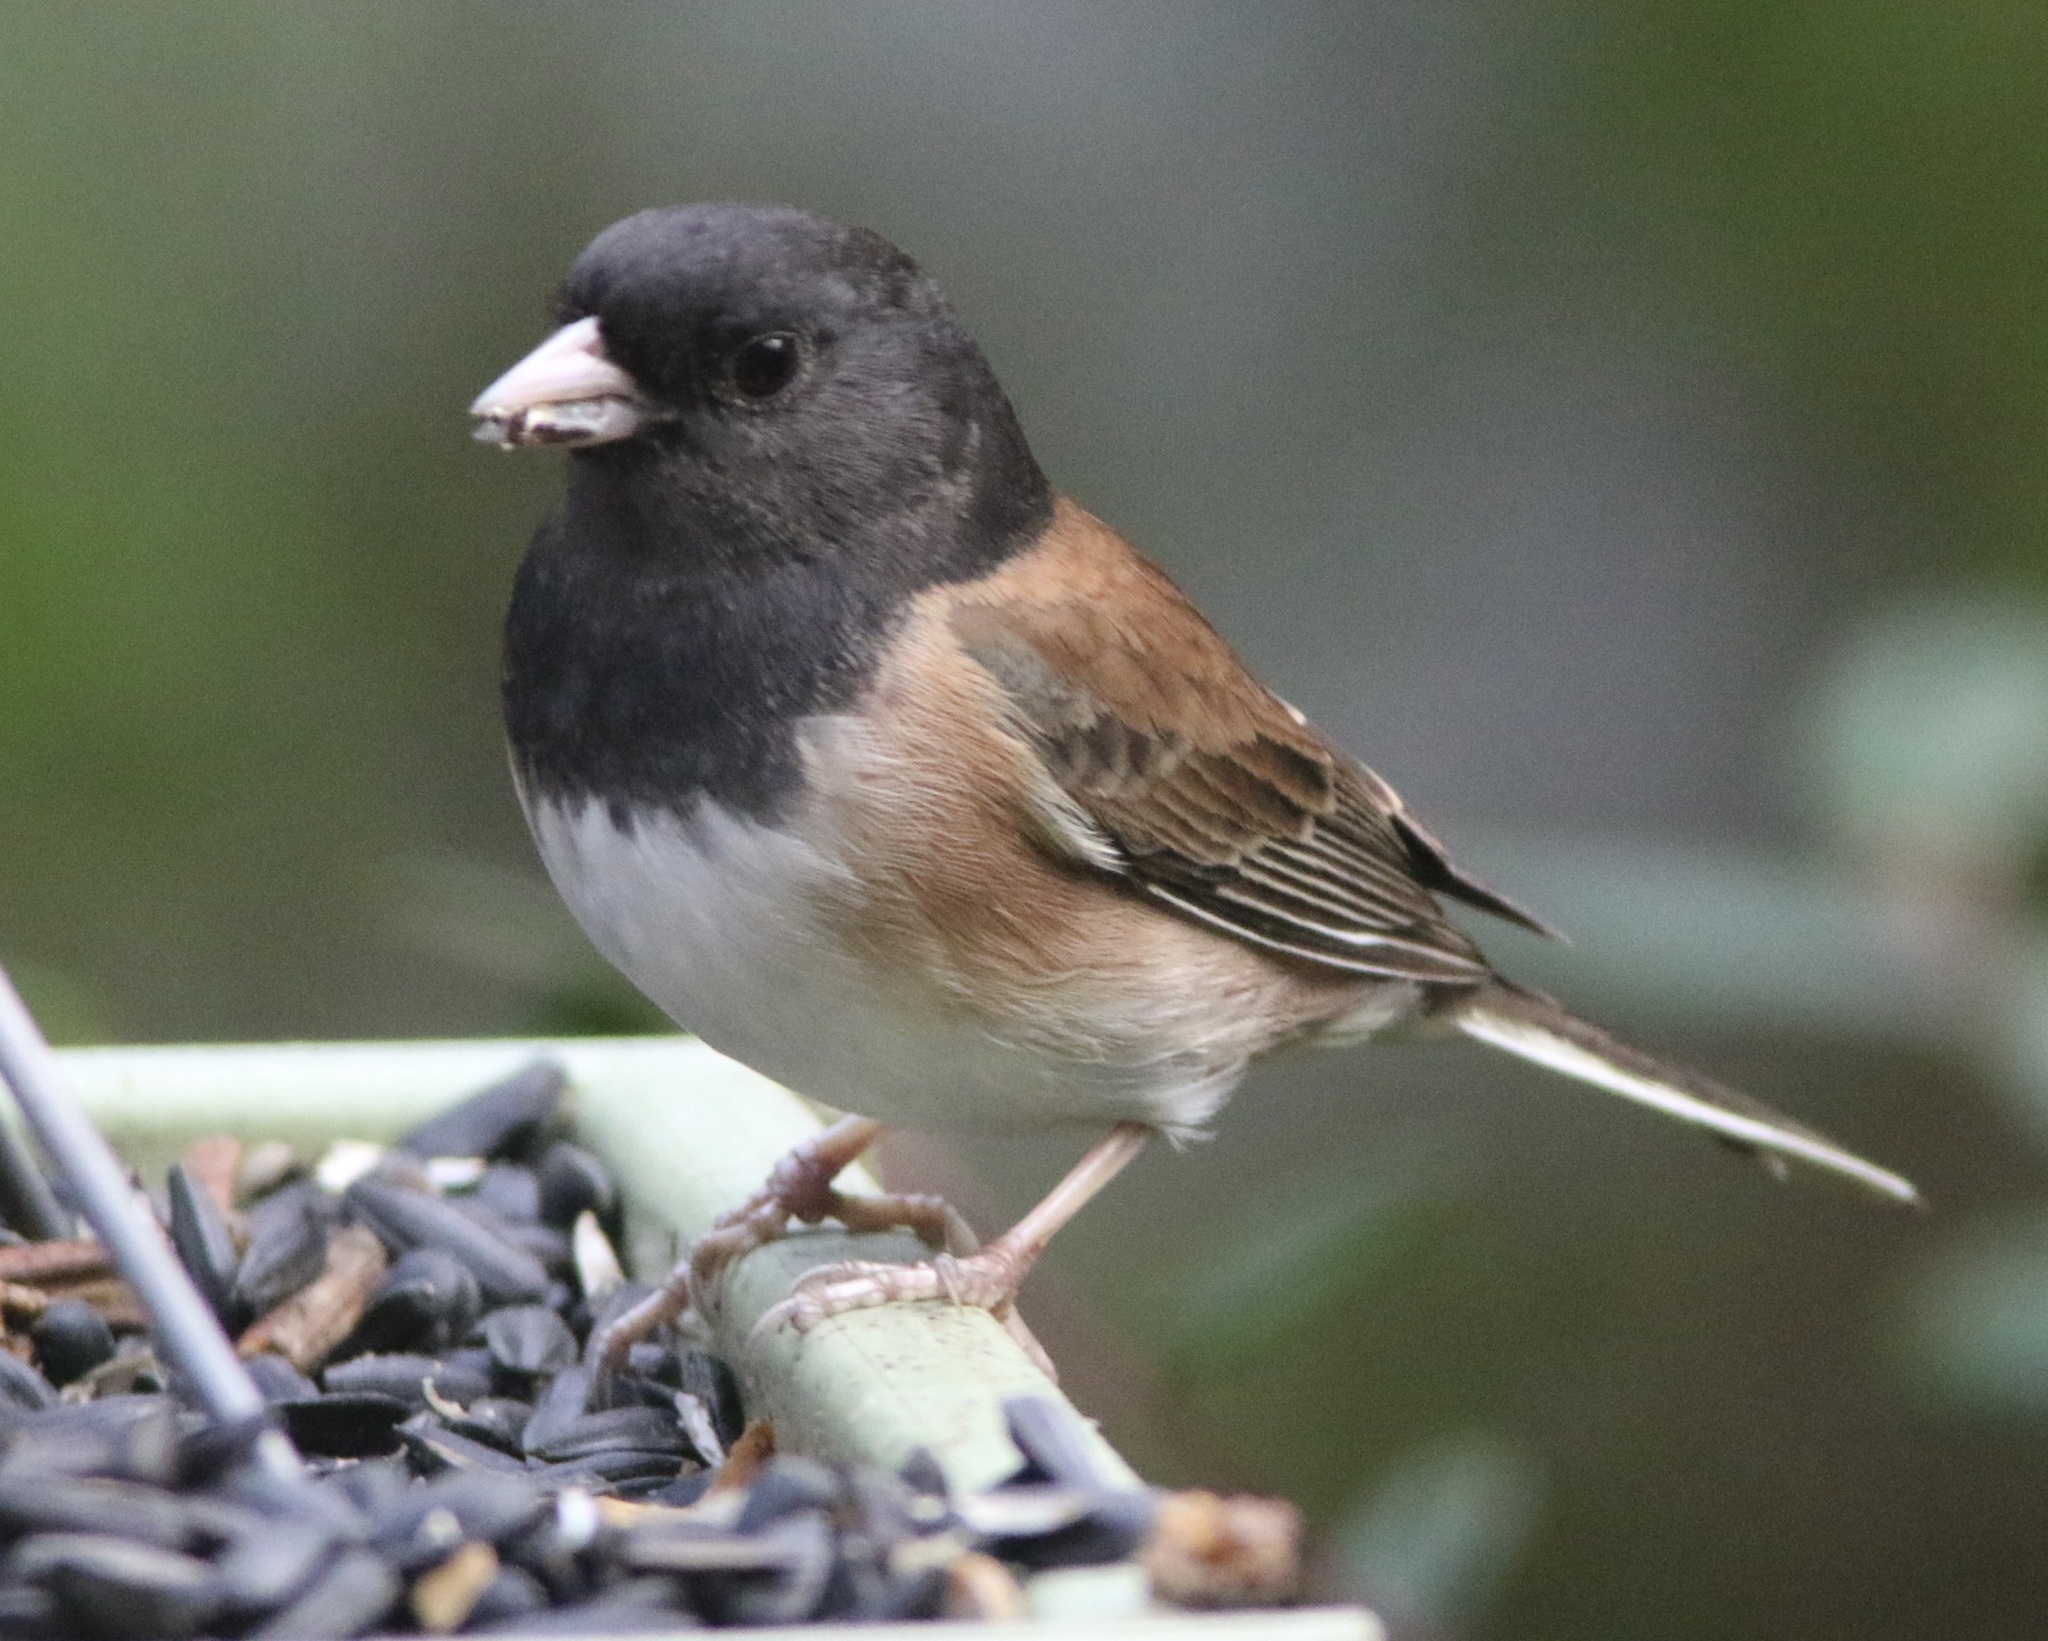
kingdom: Animalia
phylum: Chordata
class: Aves
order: Passeriformes
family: Passerellidae
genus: Junco
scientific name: Junco hyemalis
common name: Dark-eyed junco
